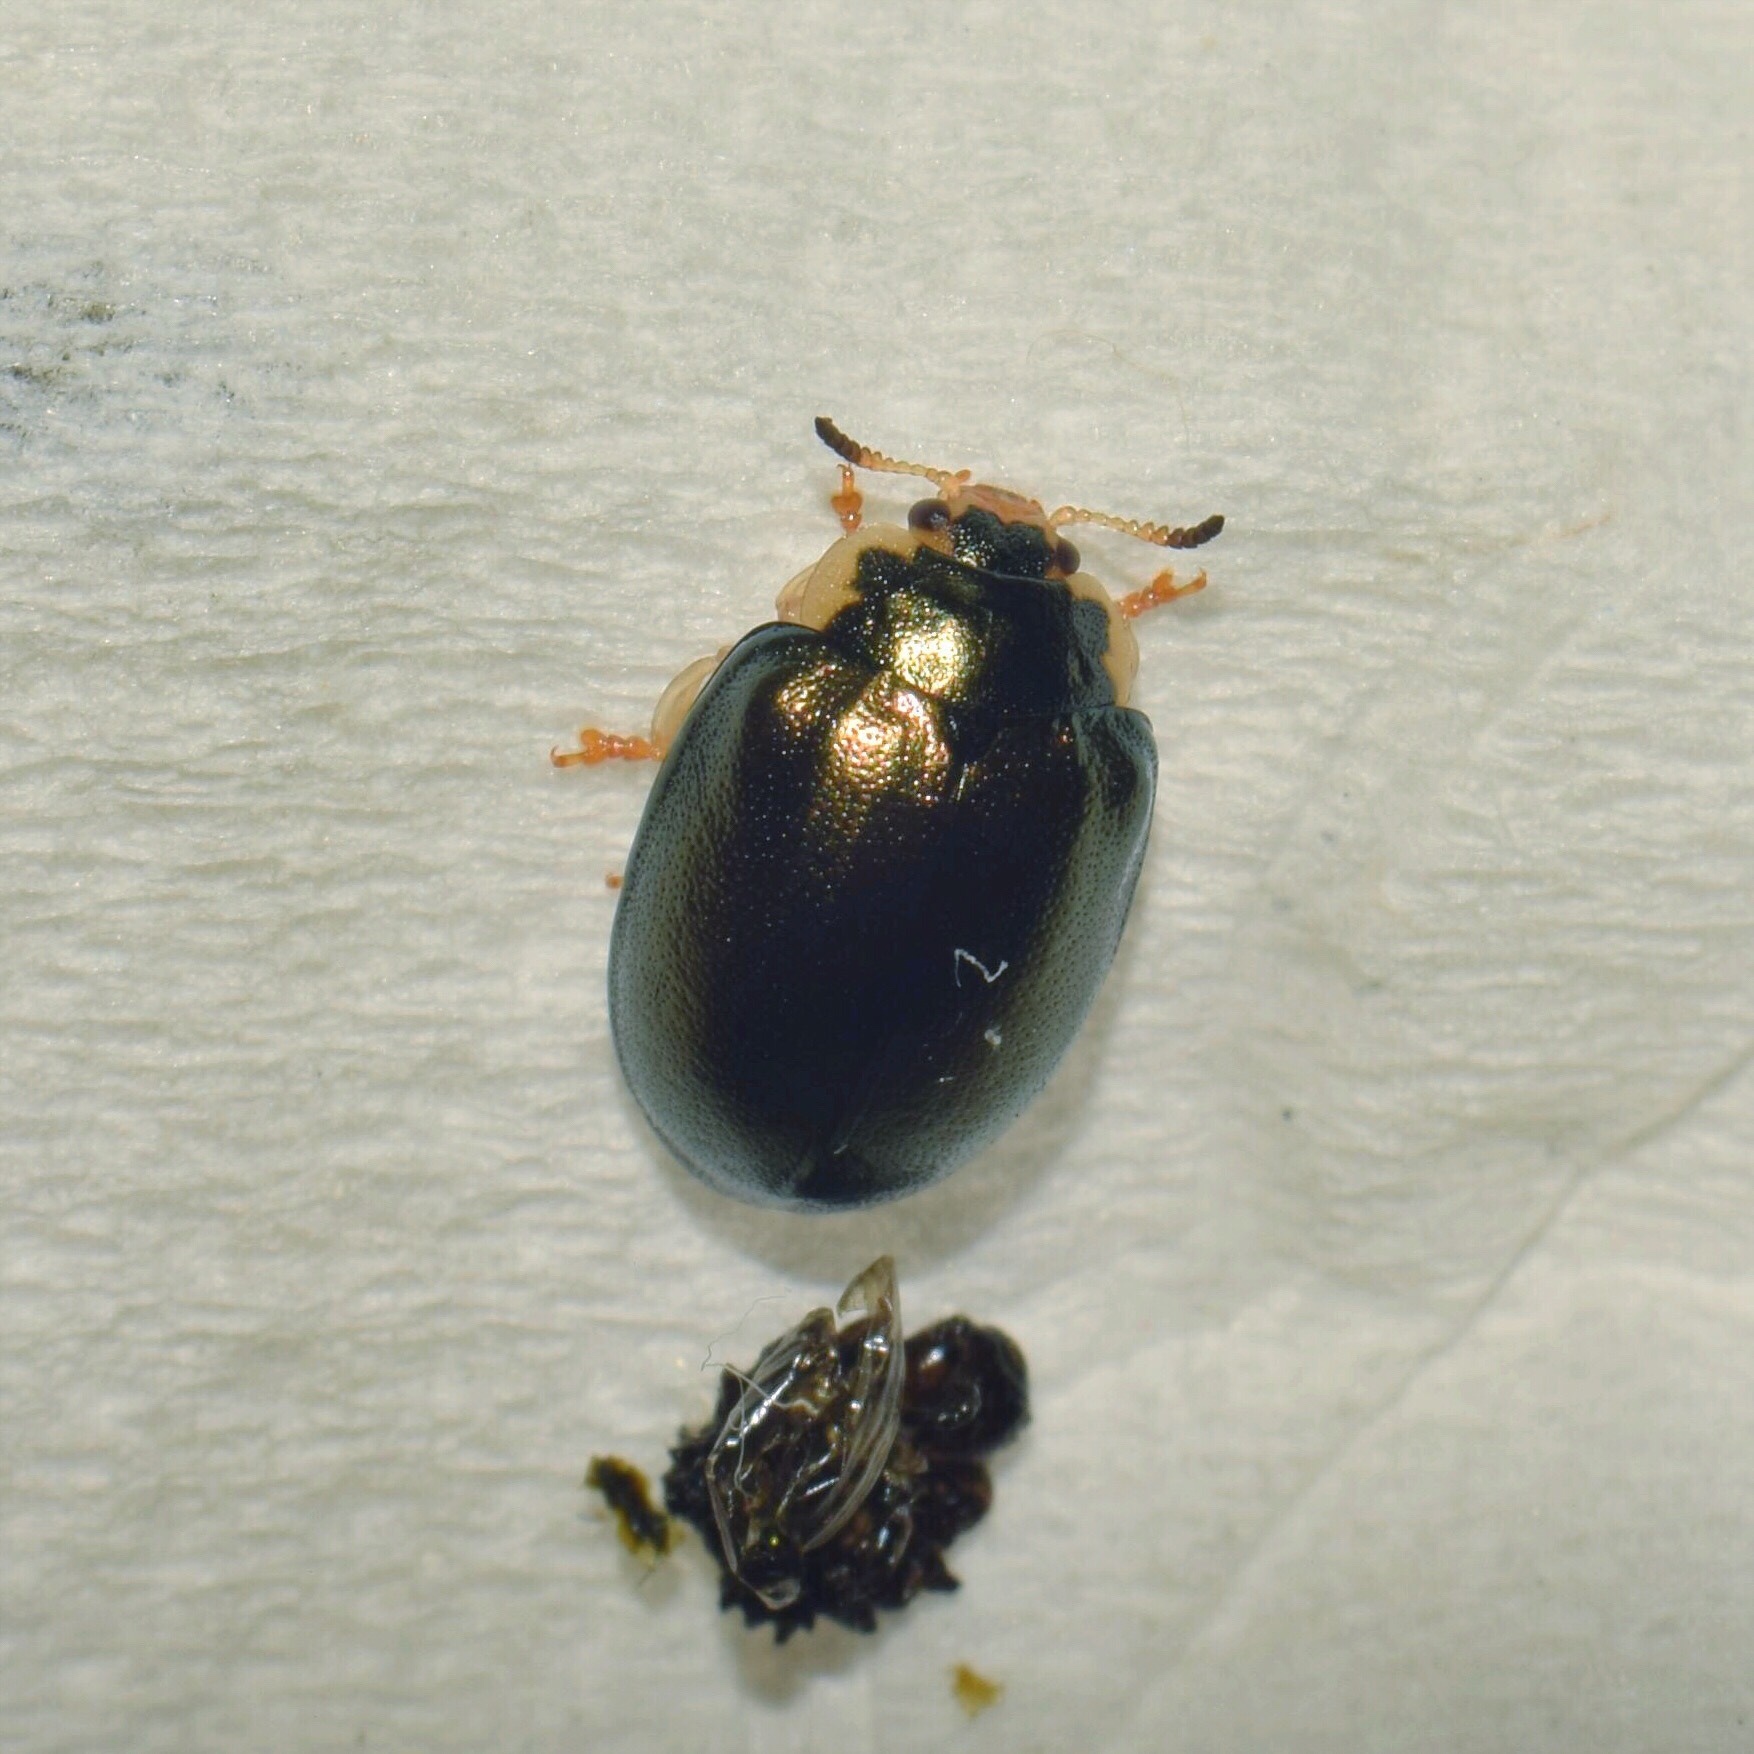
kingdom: Animalia
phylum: Arthropoda
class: Insecta
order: Coleoptera
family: Chrysomelidae
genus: Plagiosterna
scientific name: Plagiosterna
